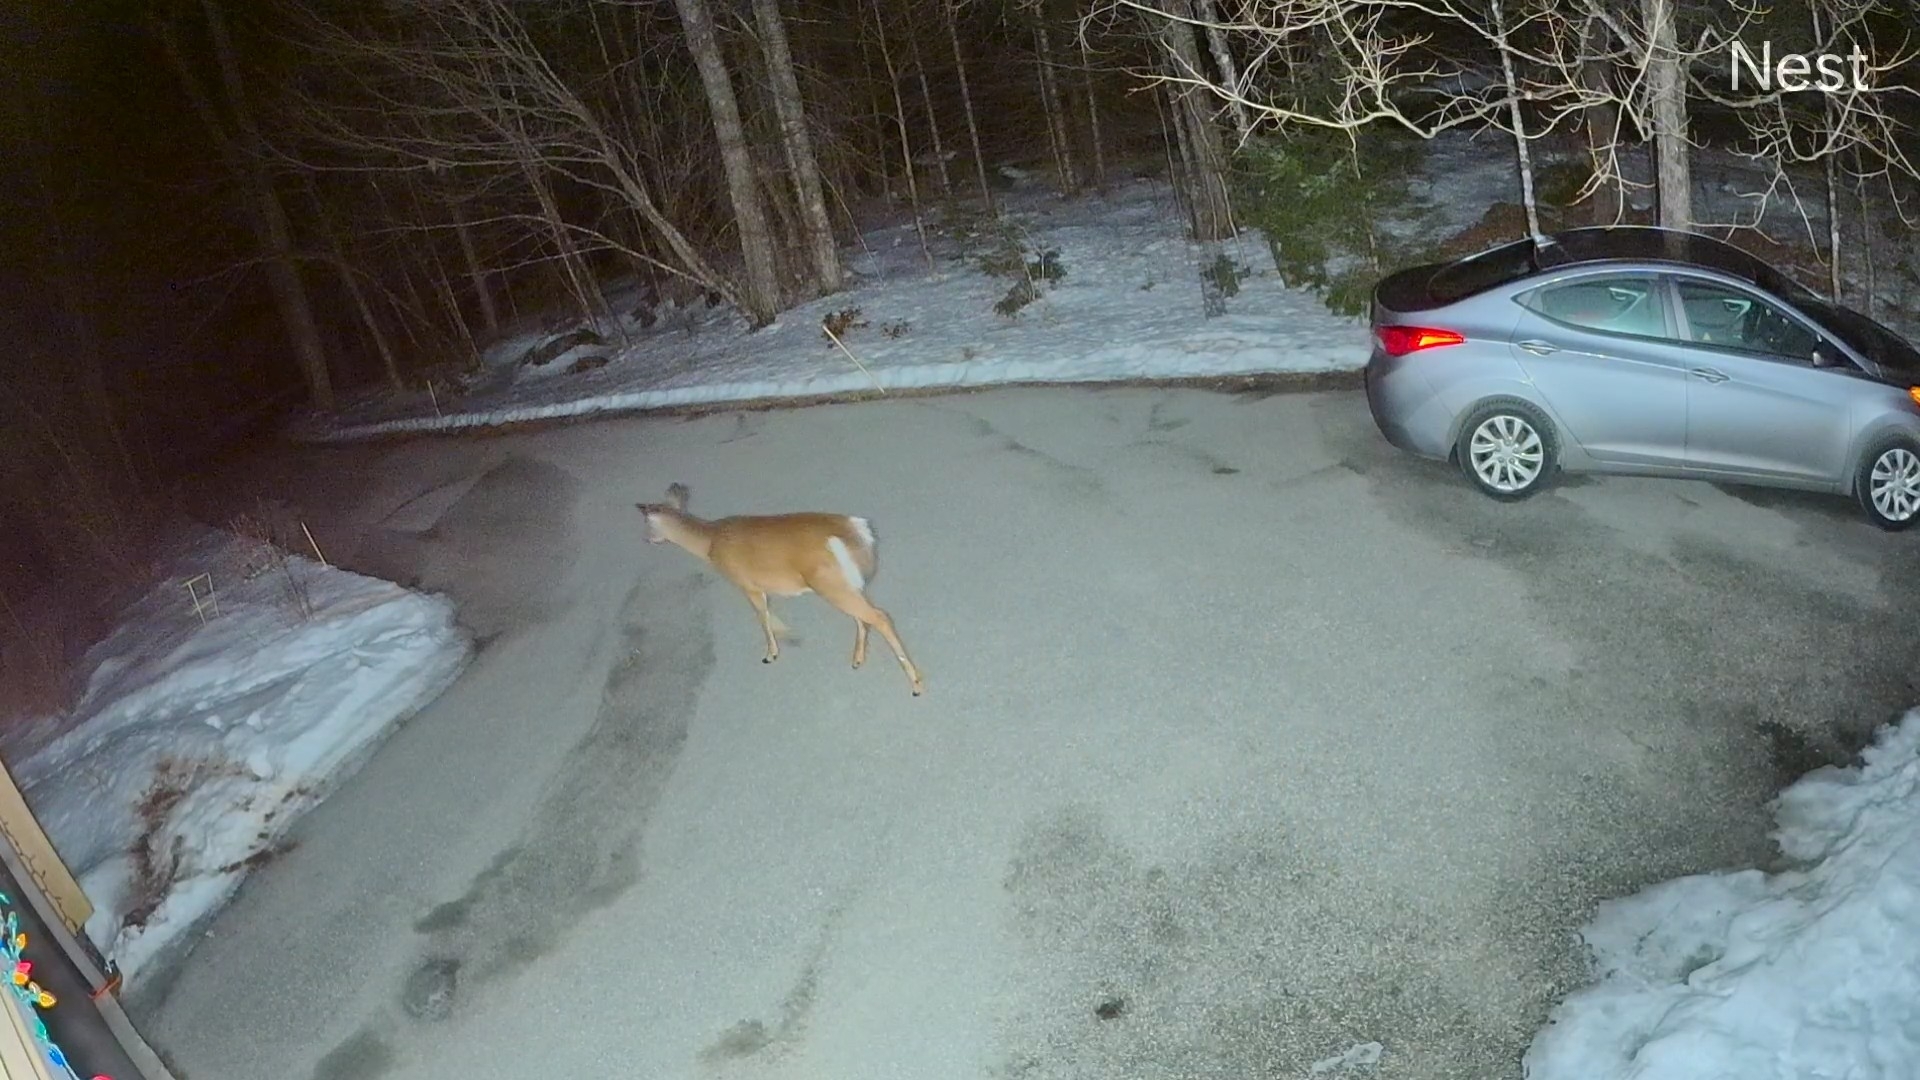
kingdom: Animalia
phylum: Chordata
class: Mammalia
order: Artiodactyla
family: Cervidae
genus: Odocoileus
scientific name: Odocoileus virginianus
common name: White-tailed deer
